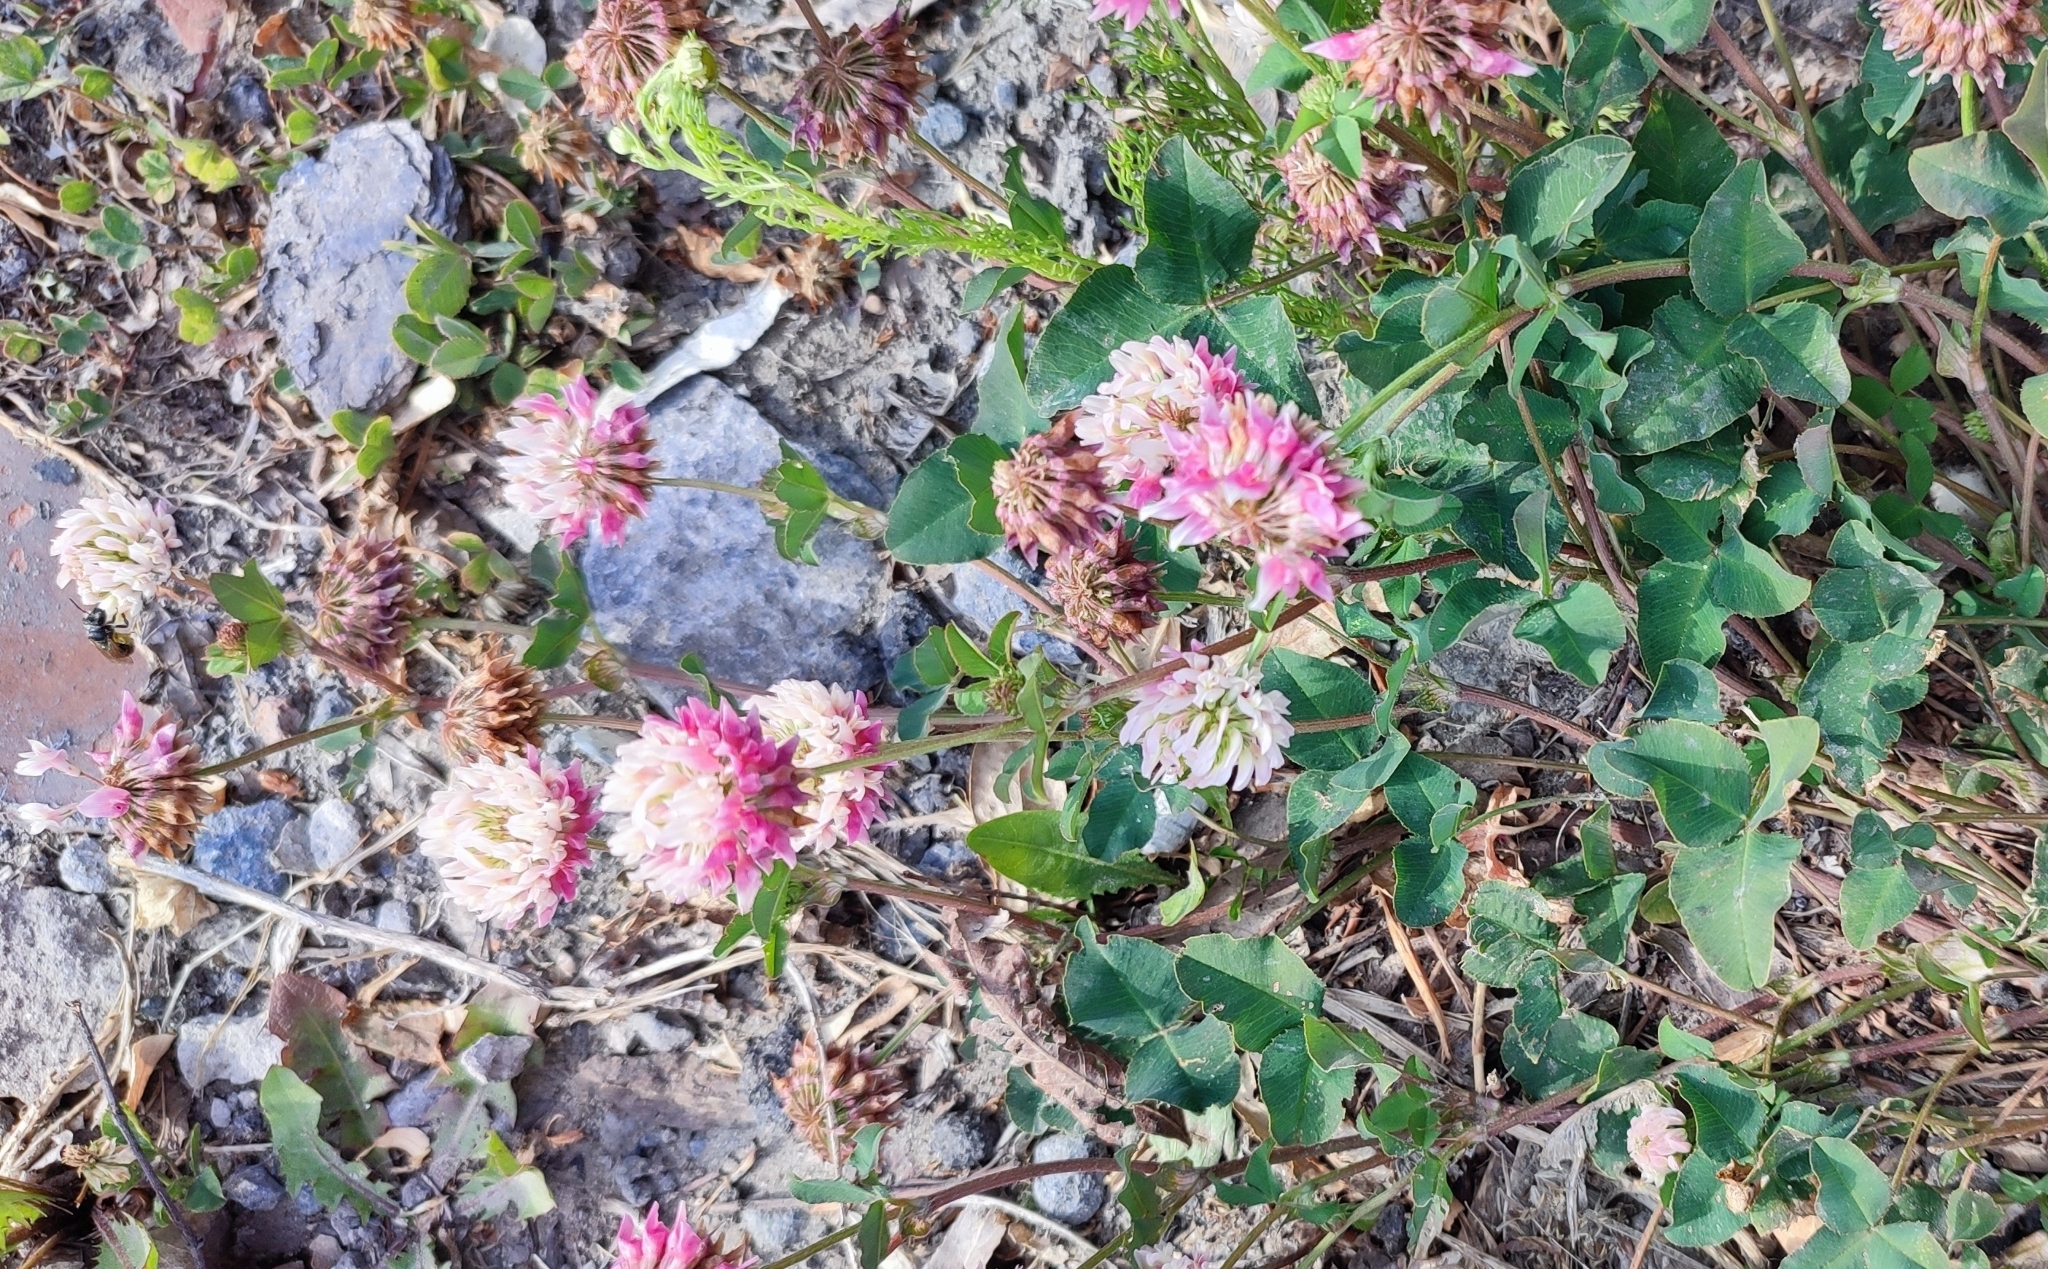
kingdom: Plantae
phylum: Tracheophyta
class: Magnoliopsida
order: Fabales
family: Fabaceae
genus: Trifolium
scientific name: Trifolium hybridum
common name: Alsike clover
